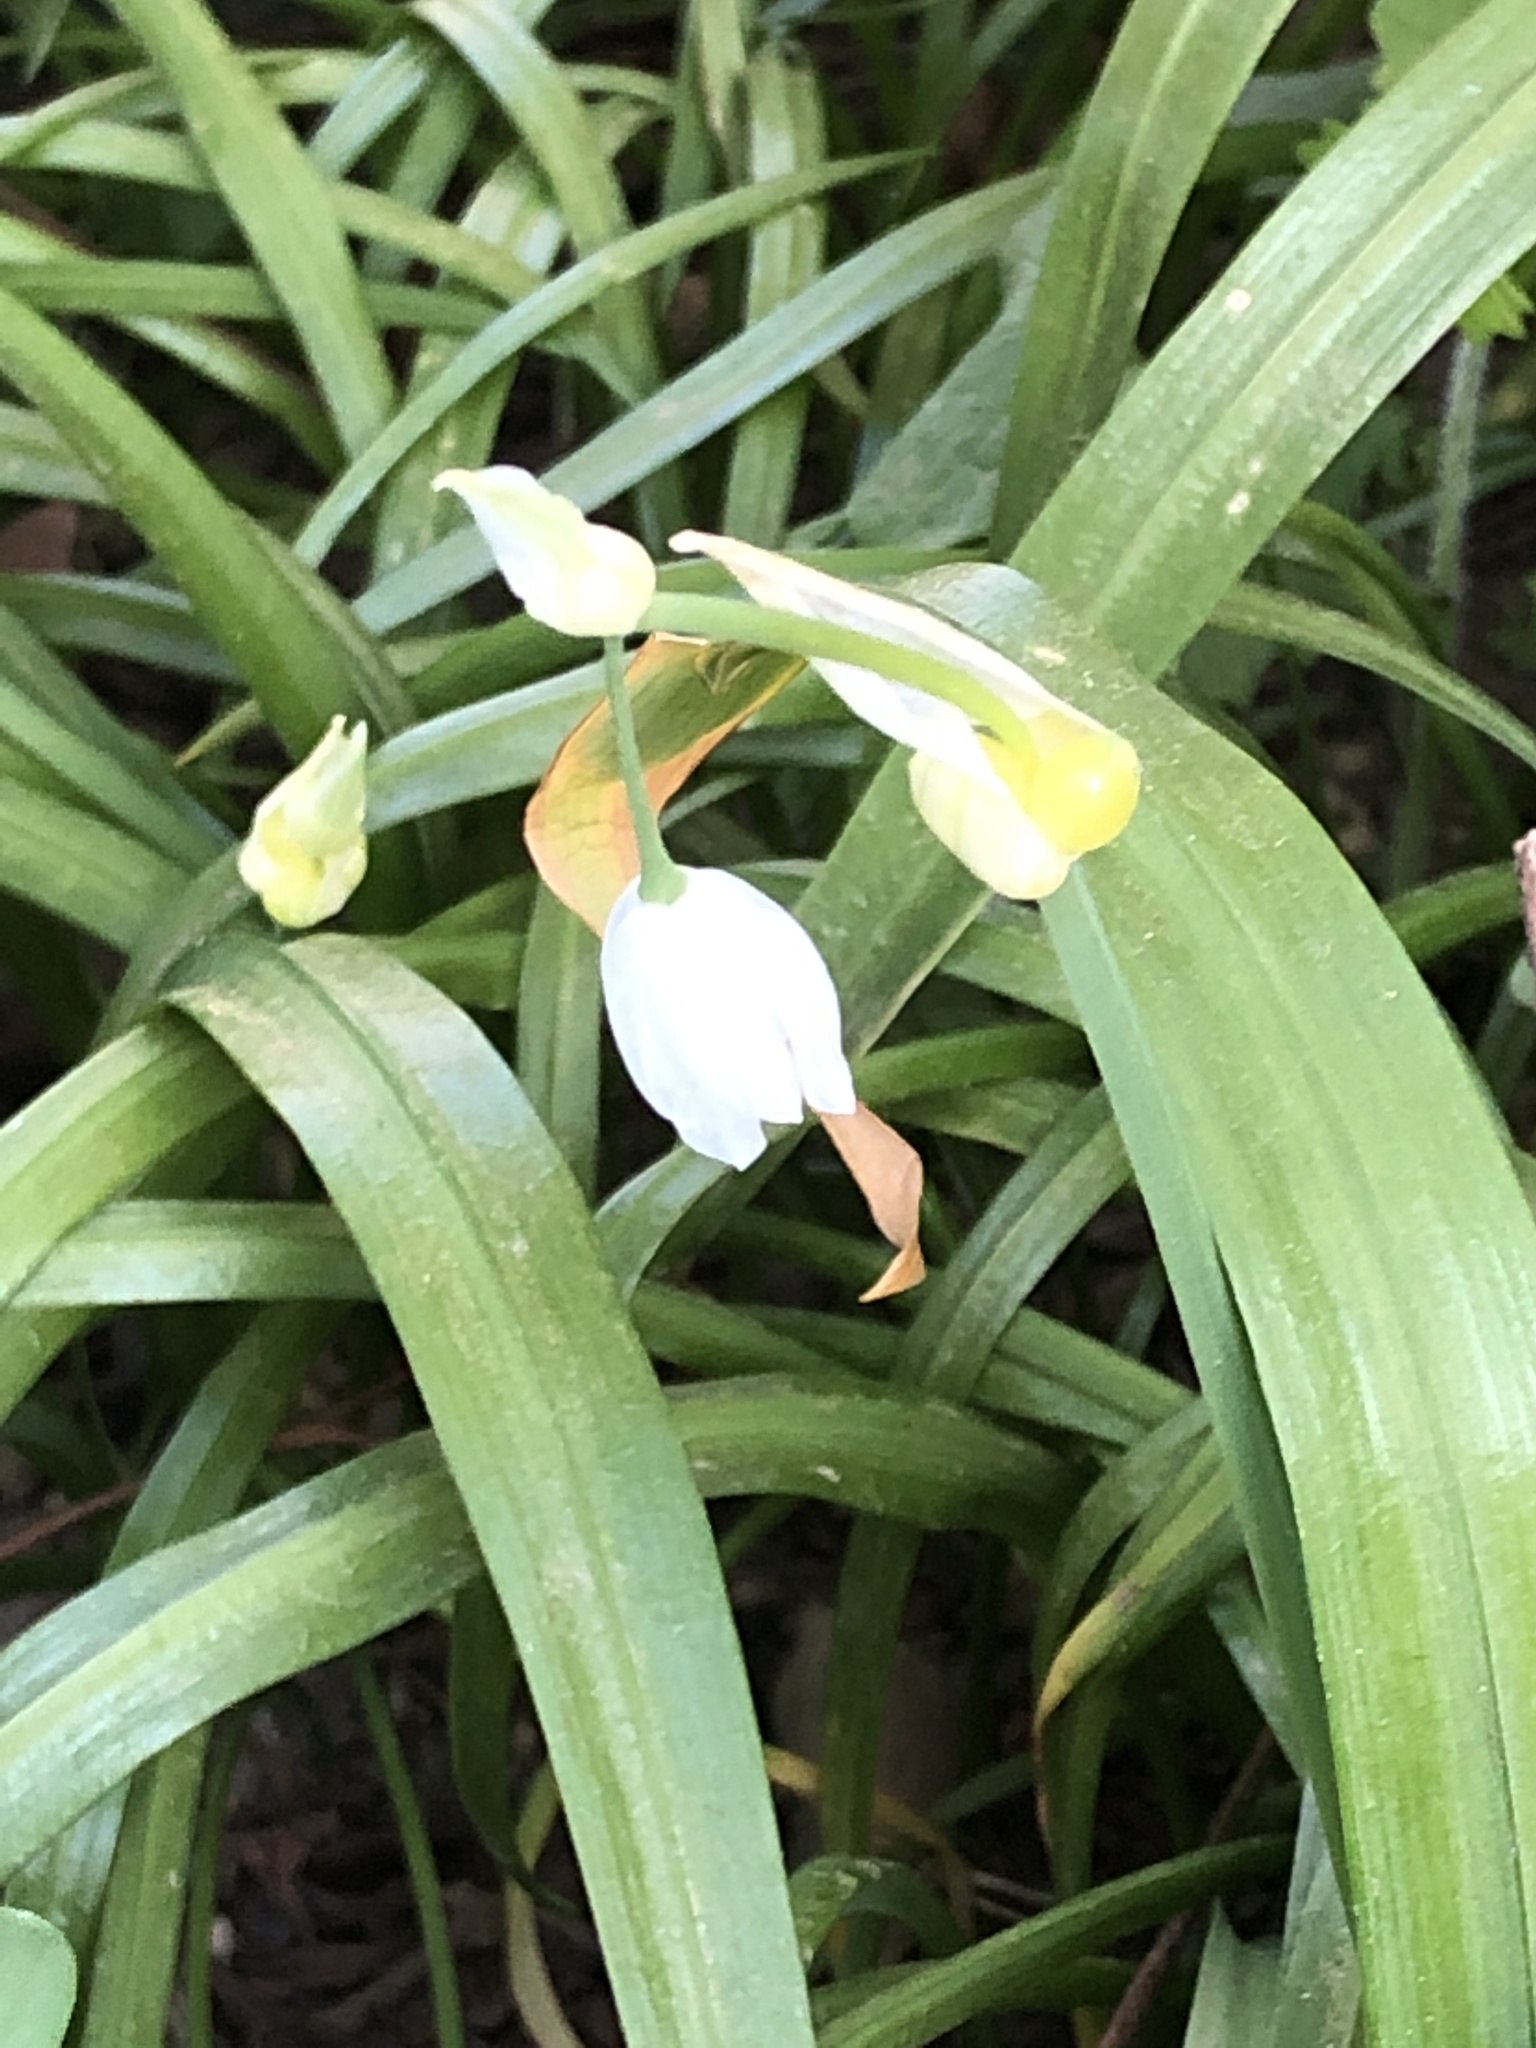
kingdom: Plantae
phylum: Tracheophyta
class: Liliopsida
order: Asparagales
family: Amaryllidaceae
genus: Allium
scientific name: Allium paradoxum
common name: Few-flowered garlic
